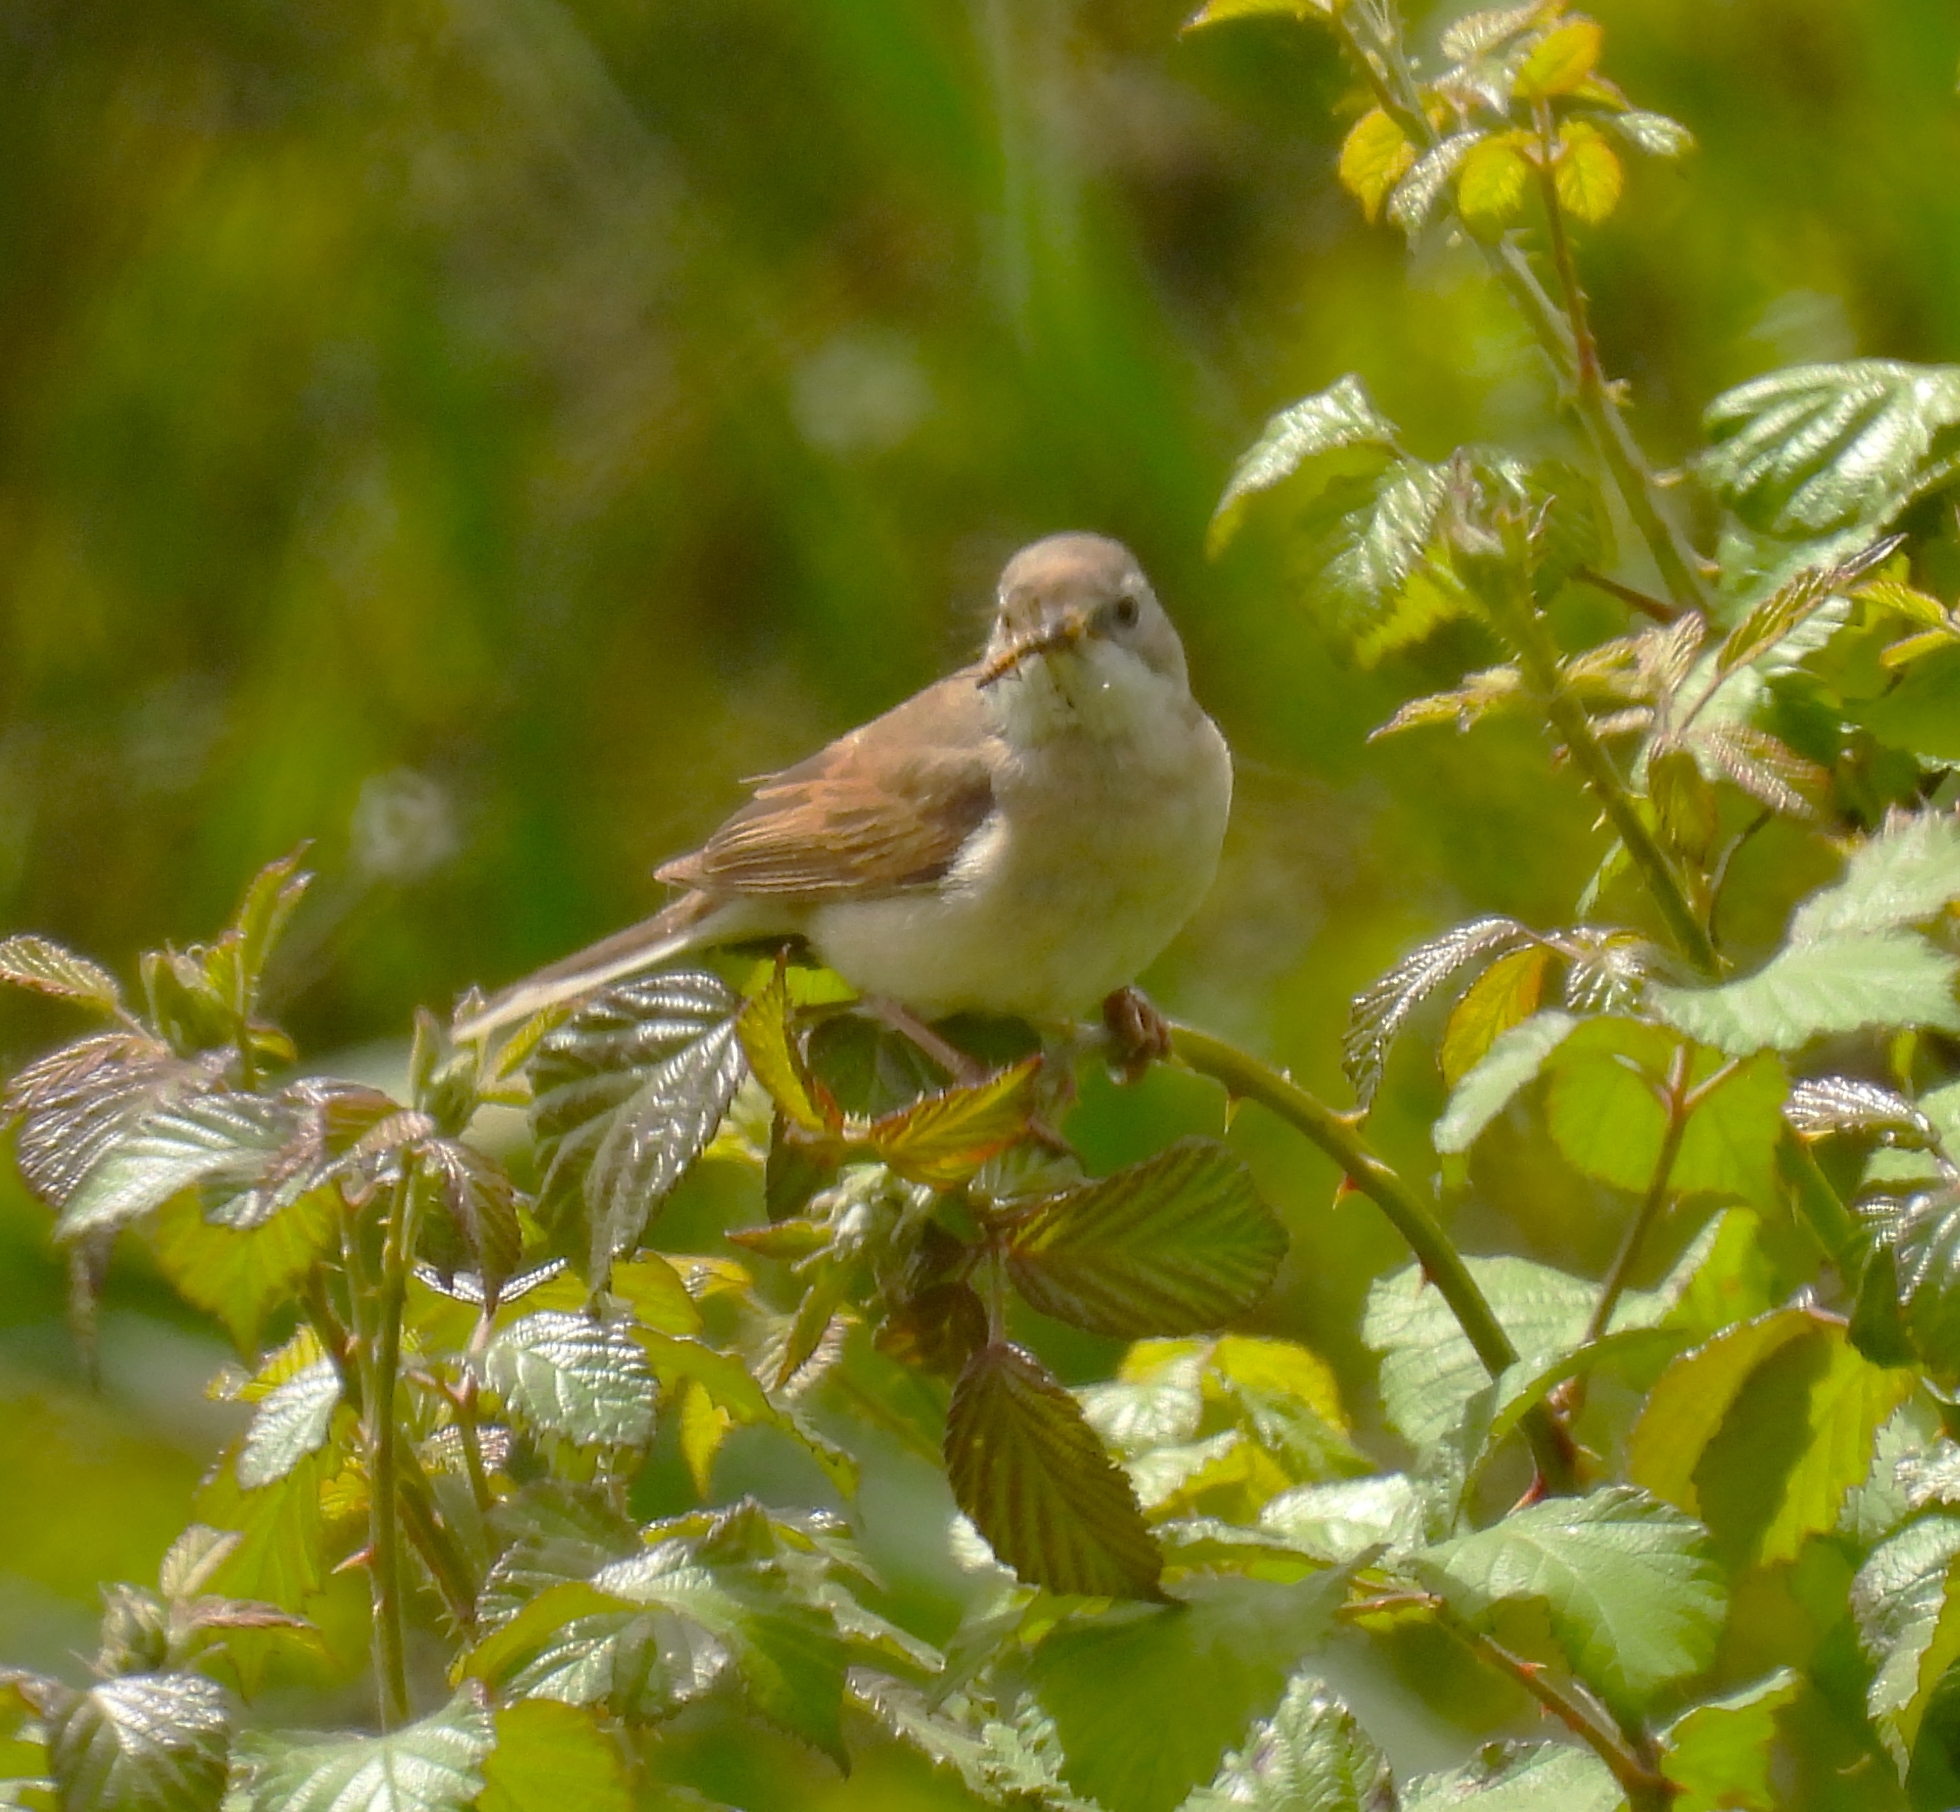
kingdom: Animalia
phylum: Chordata
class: Aves
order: Passeriformes
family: Sylviidae
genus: Sylvia
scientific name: Sylvia communis
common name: Common whitethroat
